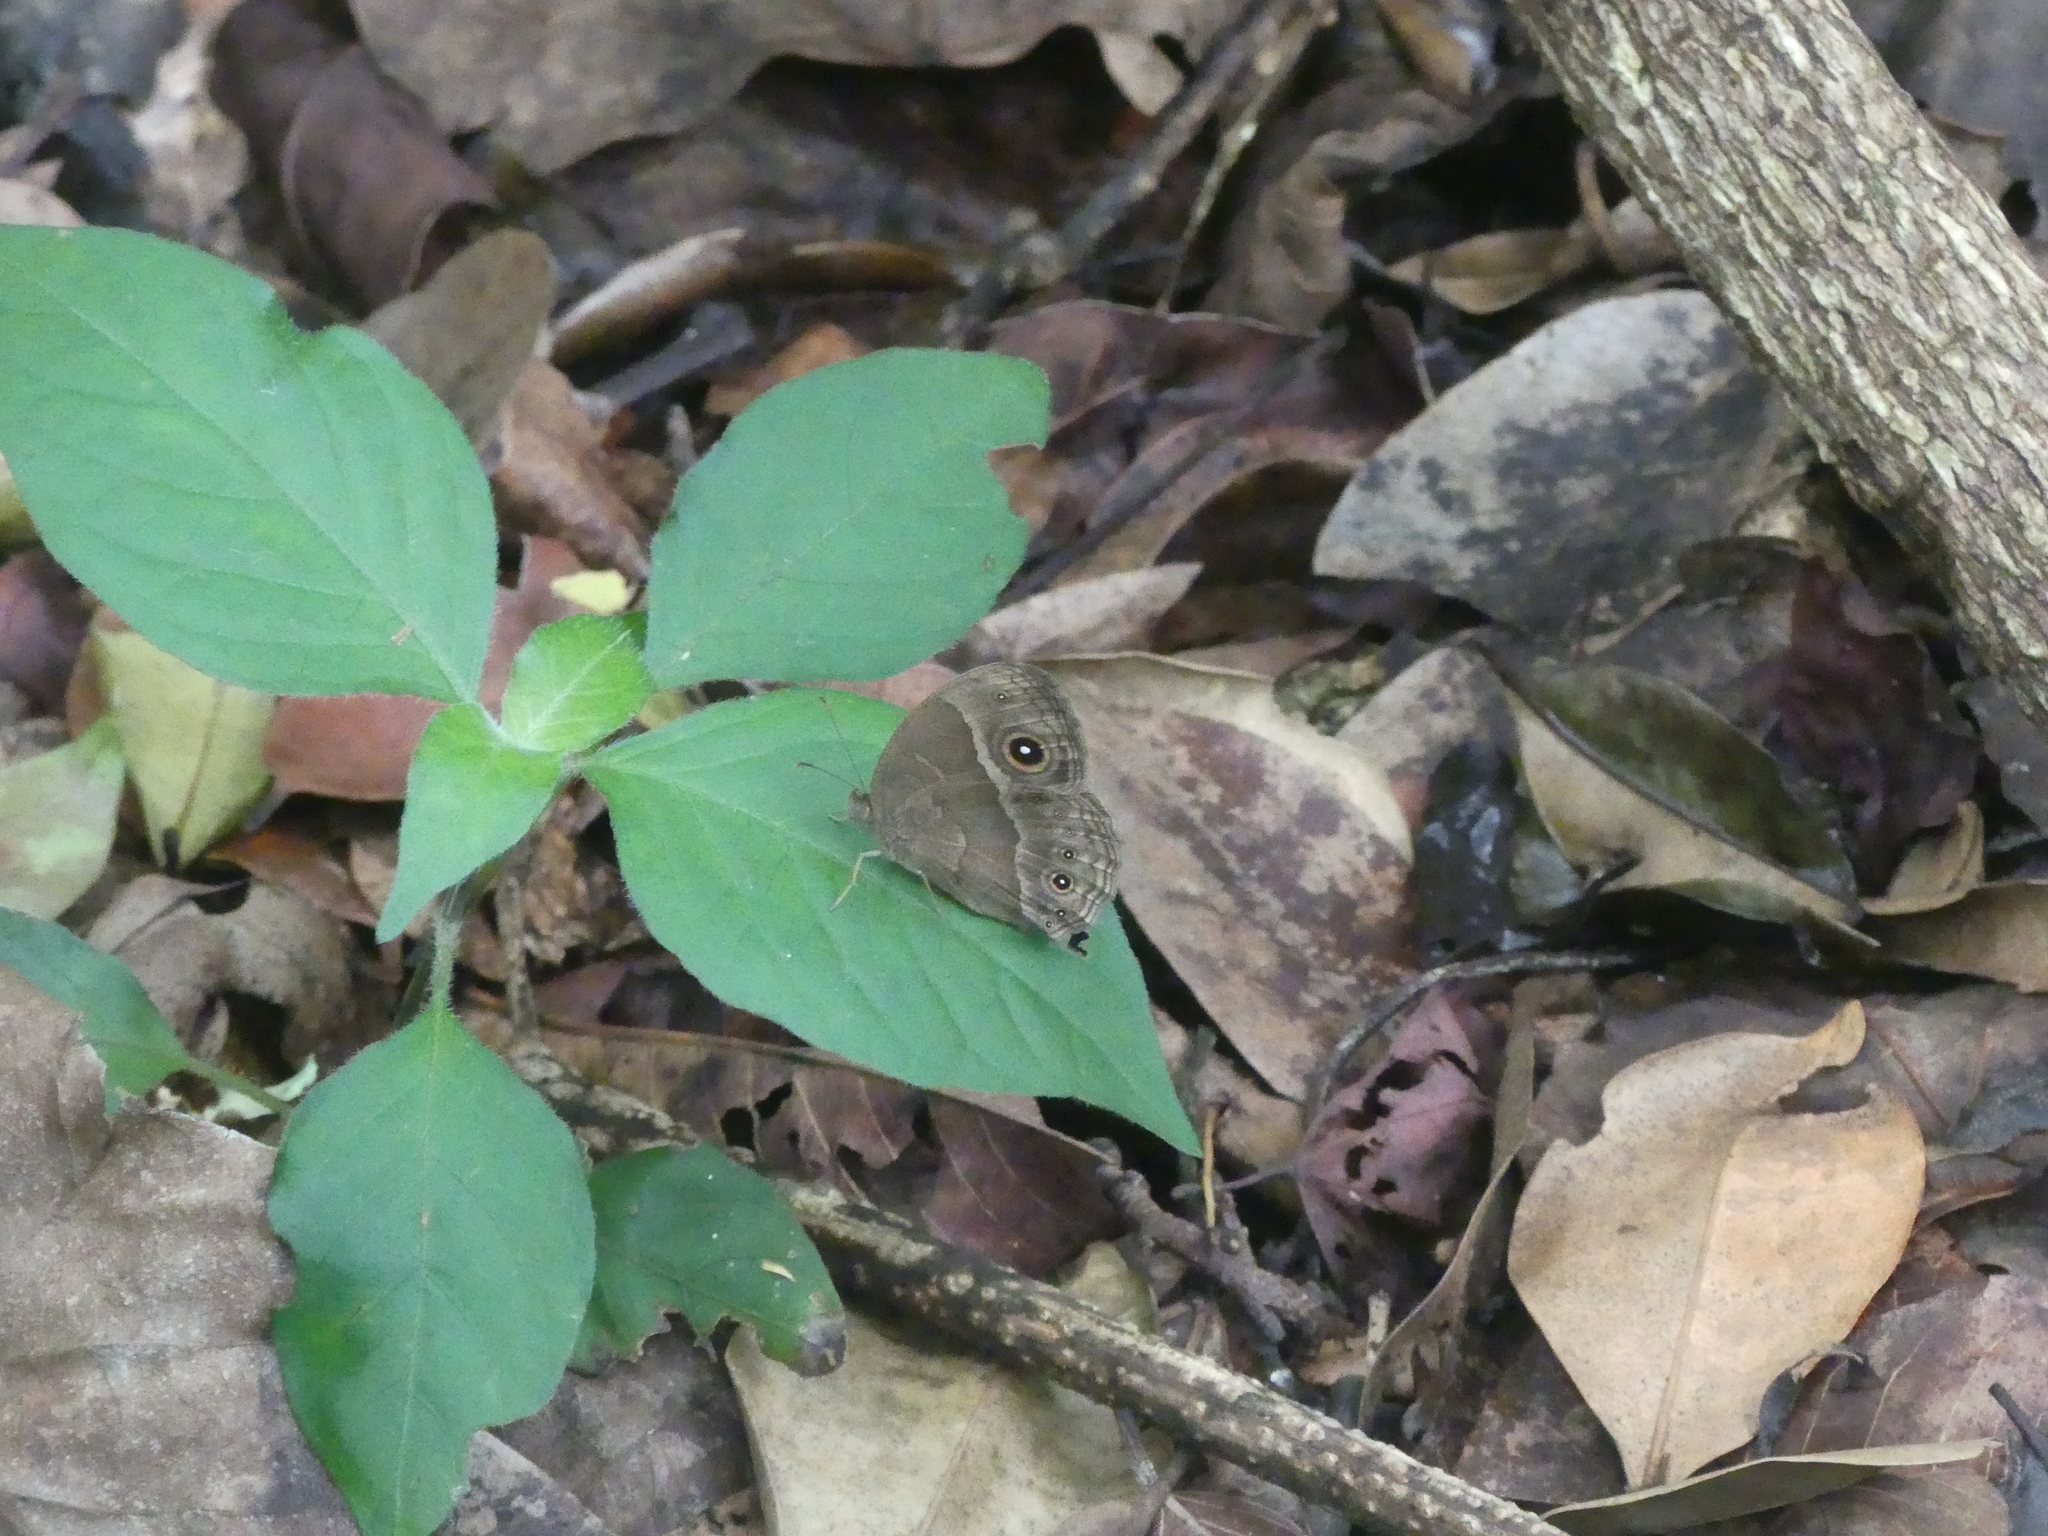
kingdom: Animalia
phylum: Arthropoda
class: Insecta
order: Lepidoptera
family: Nymphalidae
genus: Mycalesis
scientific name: Mycalesis anynana
